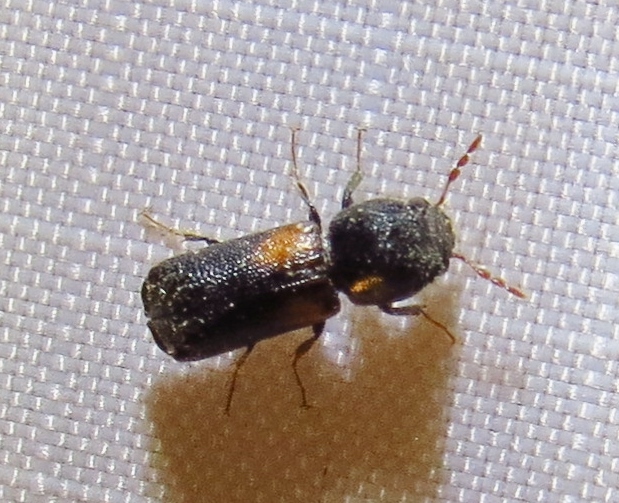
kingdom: Animalia
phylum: Arthropoda
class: Insecta
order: Coleoptera
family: Bostrichidae
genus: Xylobiops
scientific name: Xylobiops basilaris
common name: Red-shouldered bostrichid
